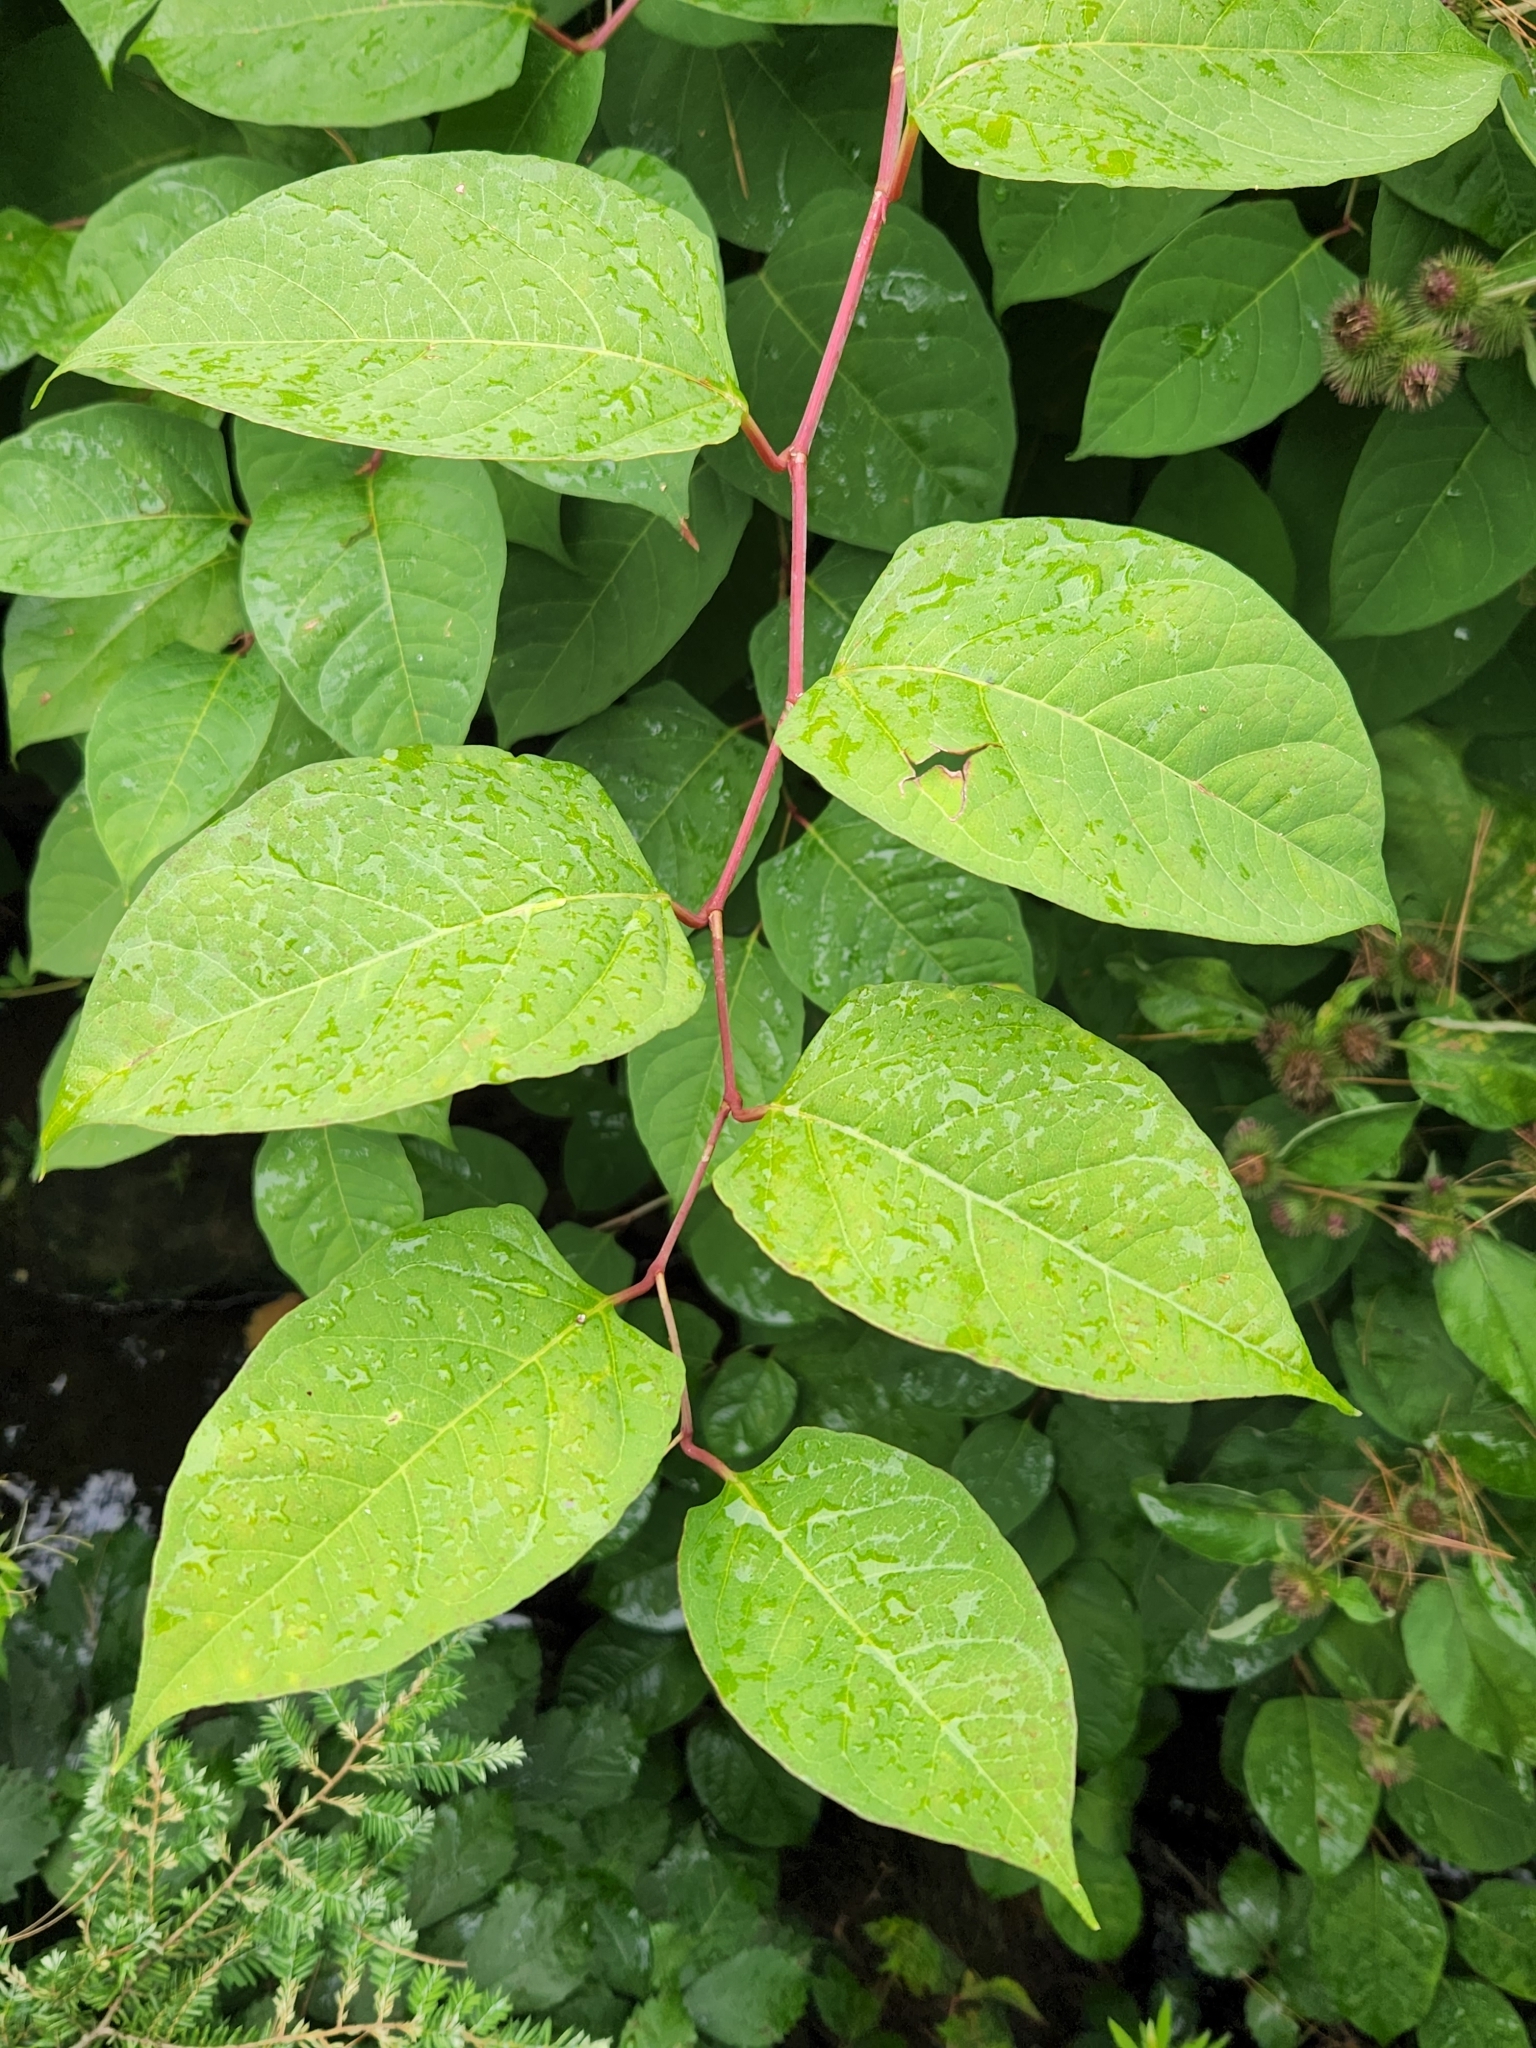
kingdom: Plantae
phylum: Tracheophyta
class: Magnoliopsida
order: Caryophyllales
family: Polygonaceae
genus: Reynoutria
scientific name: Reynoutria japonica
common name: Japanese knotweed
